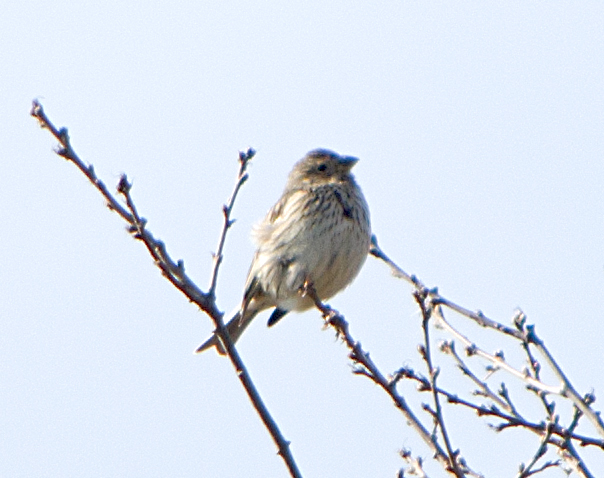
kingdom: Animalia
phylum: Chordata
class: Aves
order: Passeriformes
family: Emberizidae
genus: Emberiza
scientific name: Emberiza calandra
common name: Corn bunting
